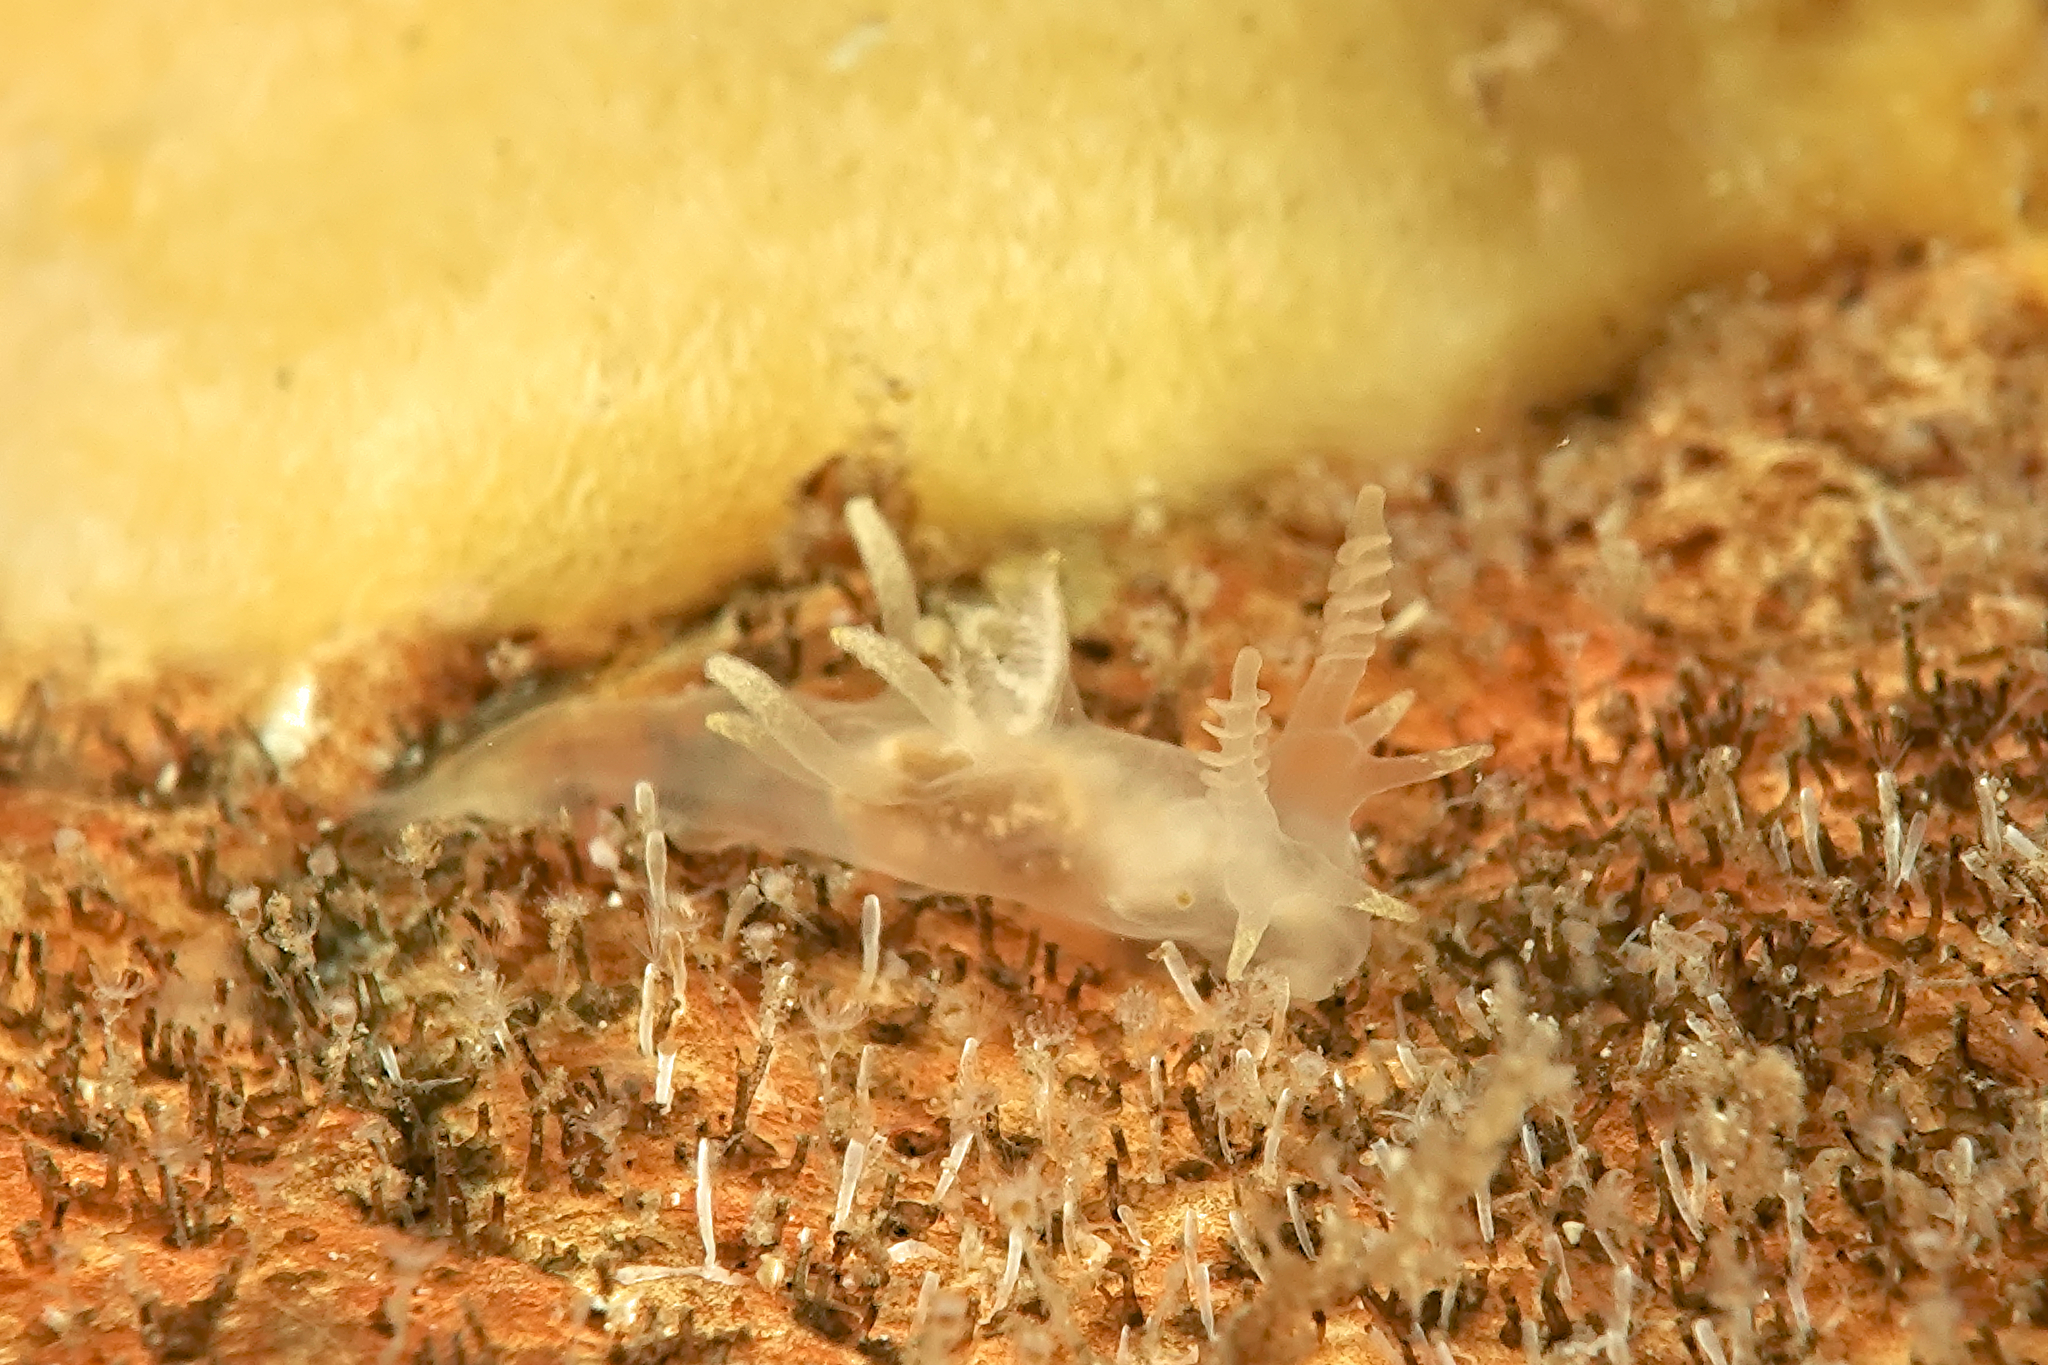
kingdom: Animalia
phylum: Mollusca
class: Gastropoda
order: Nudibranchia
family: Goniodorididae
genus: Ancula
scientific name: Ancula gibbosa
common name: Atlantic ancula
